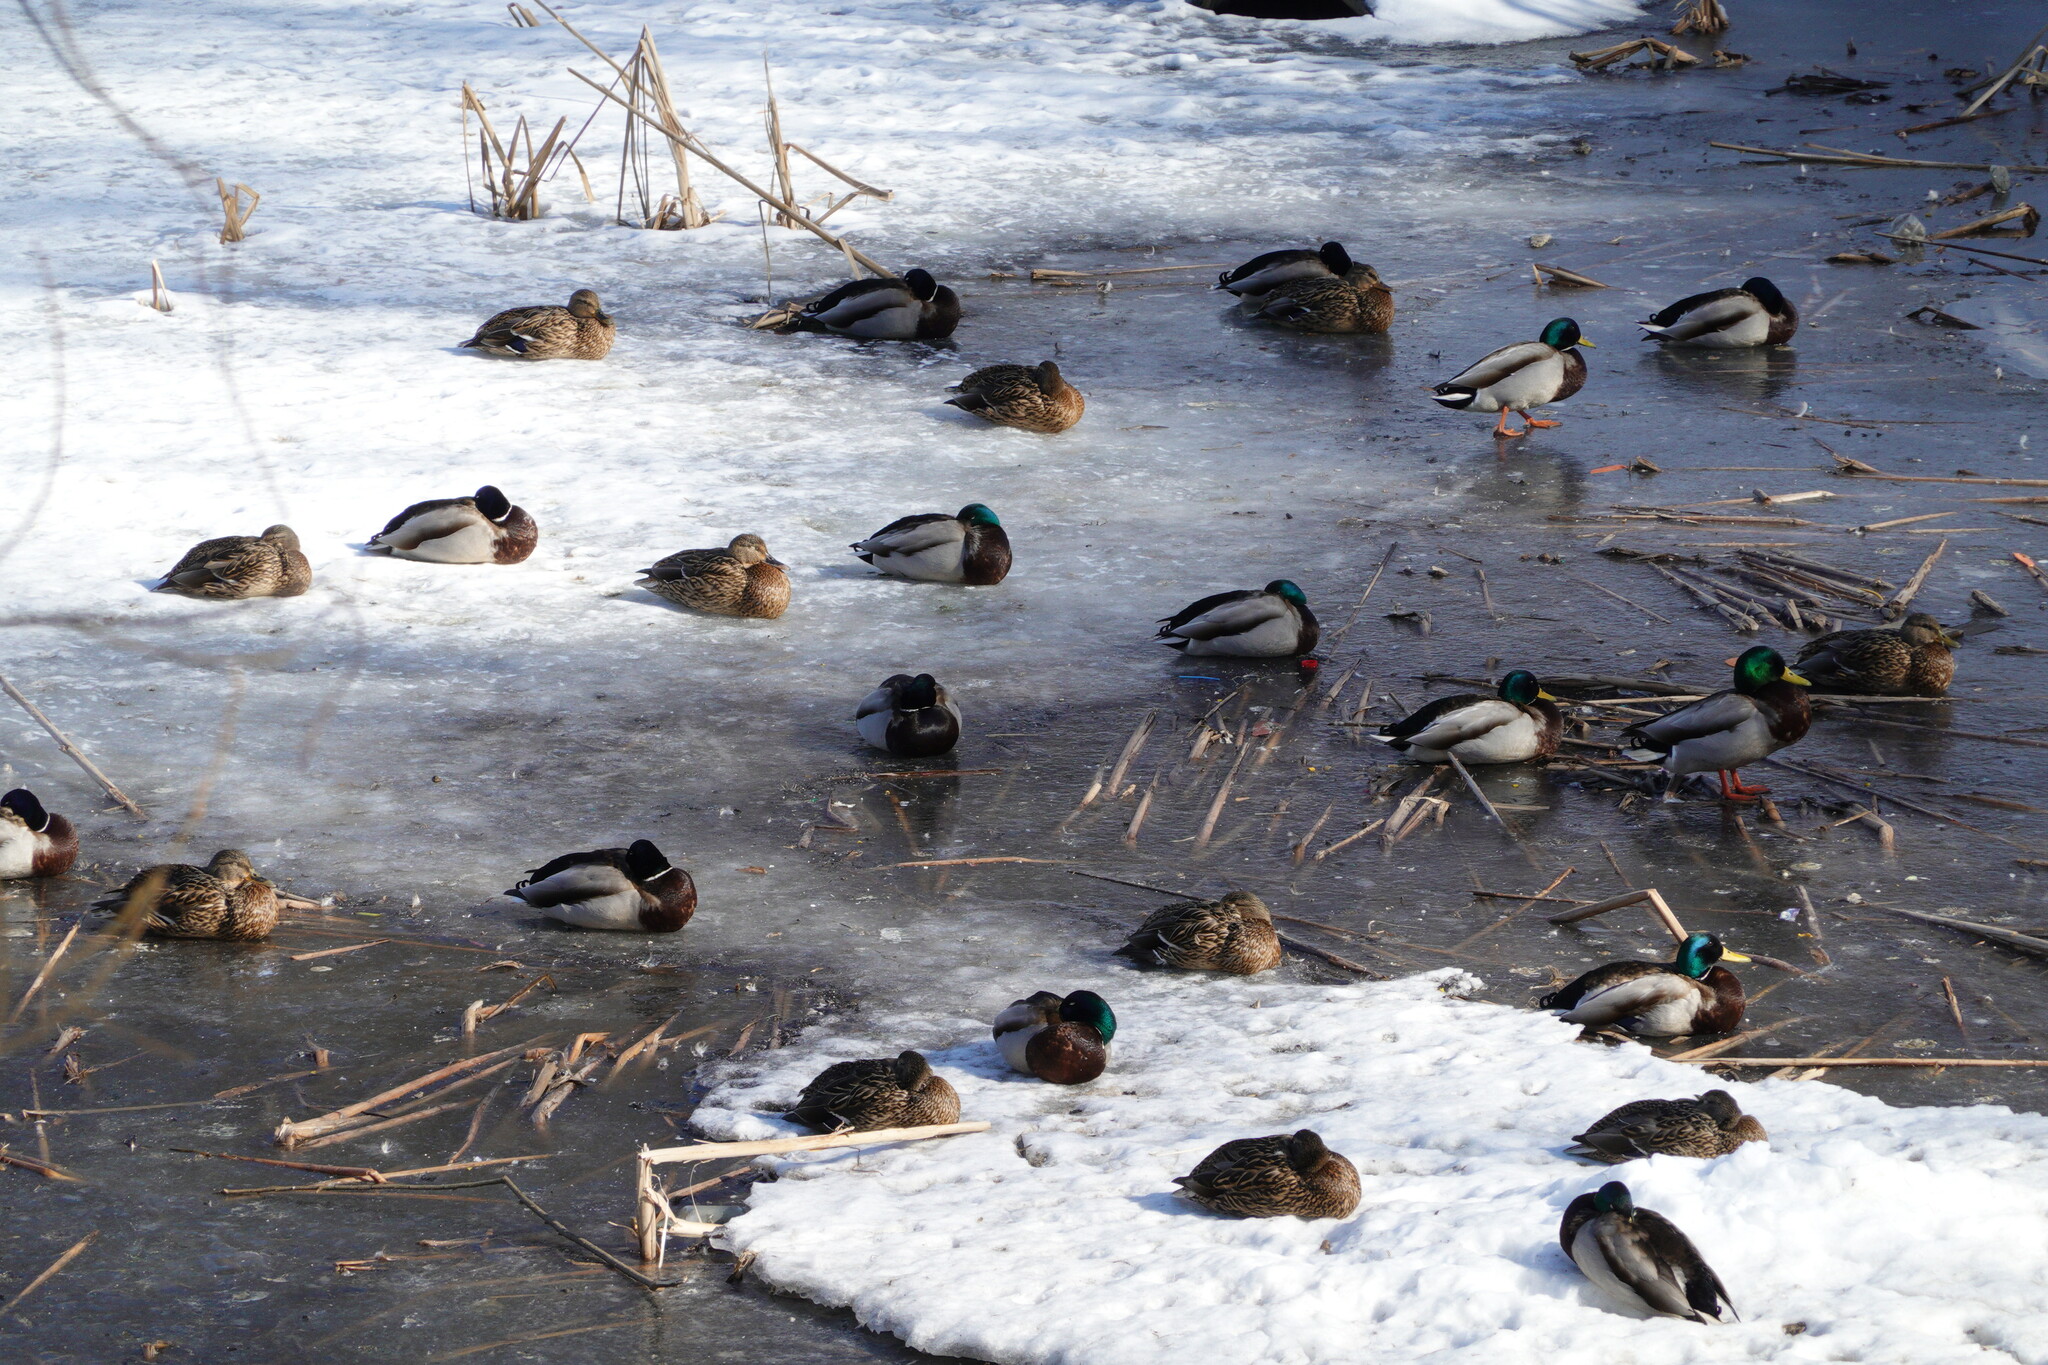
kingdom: Animalia
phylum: Chordata
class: Aves
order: Anseriformes
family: Anatidae
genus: Anas
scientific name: Anas platyrhynchos
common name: Mallard
